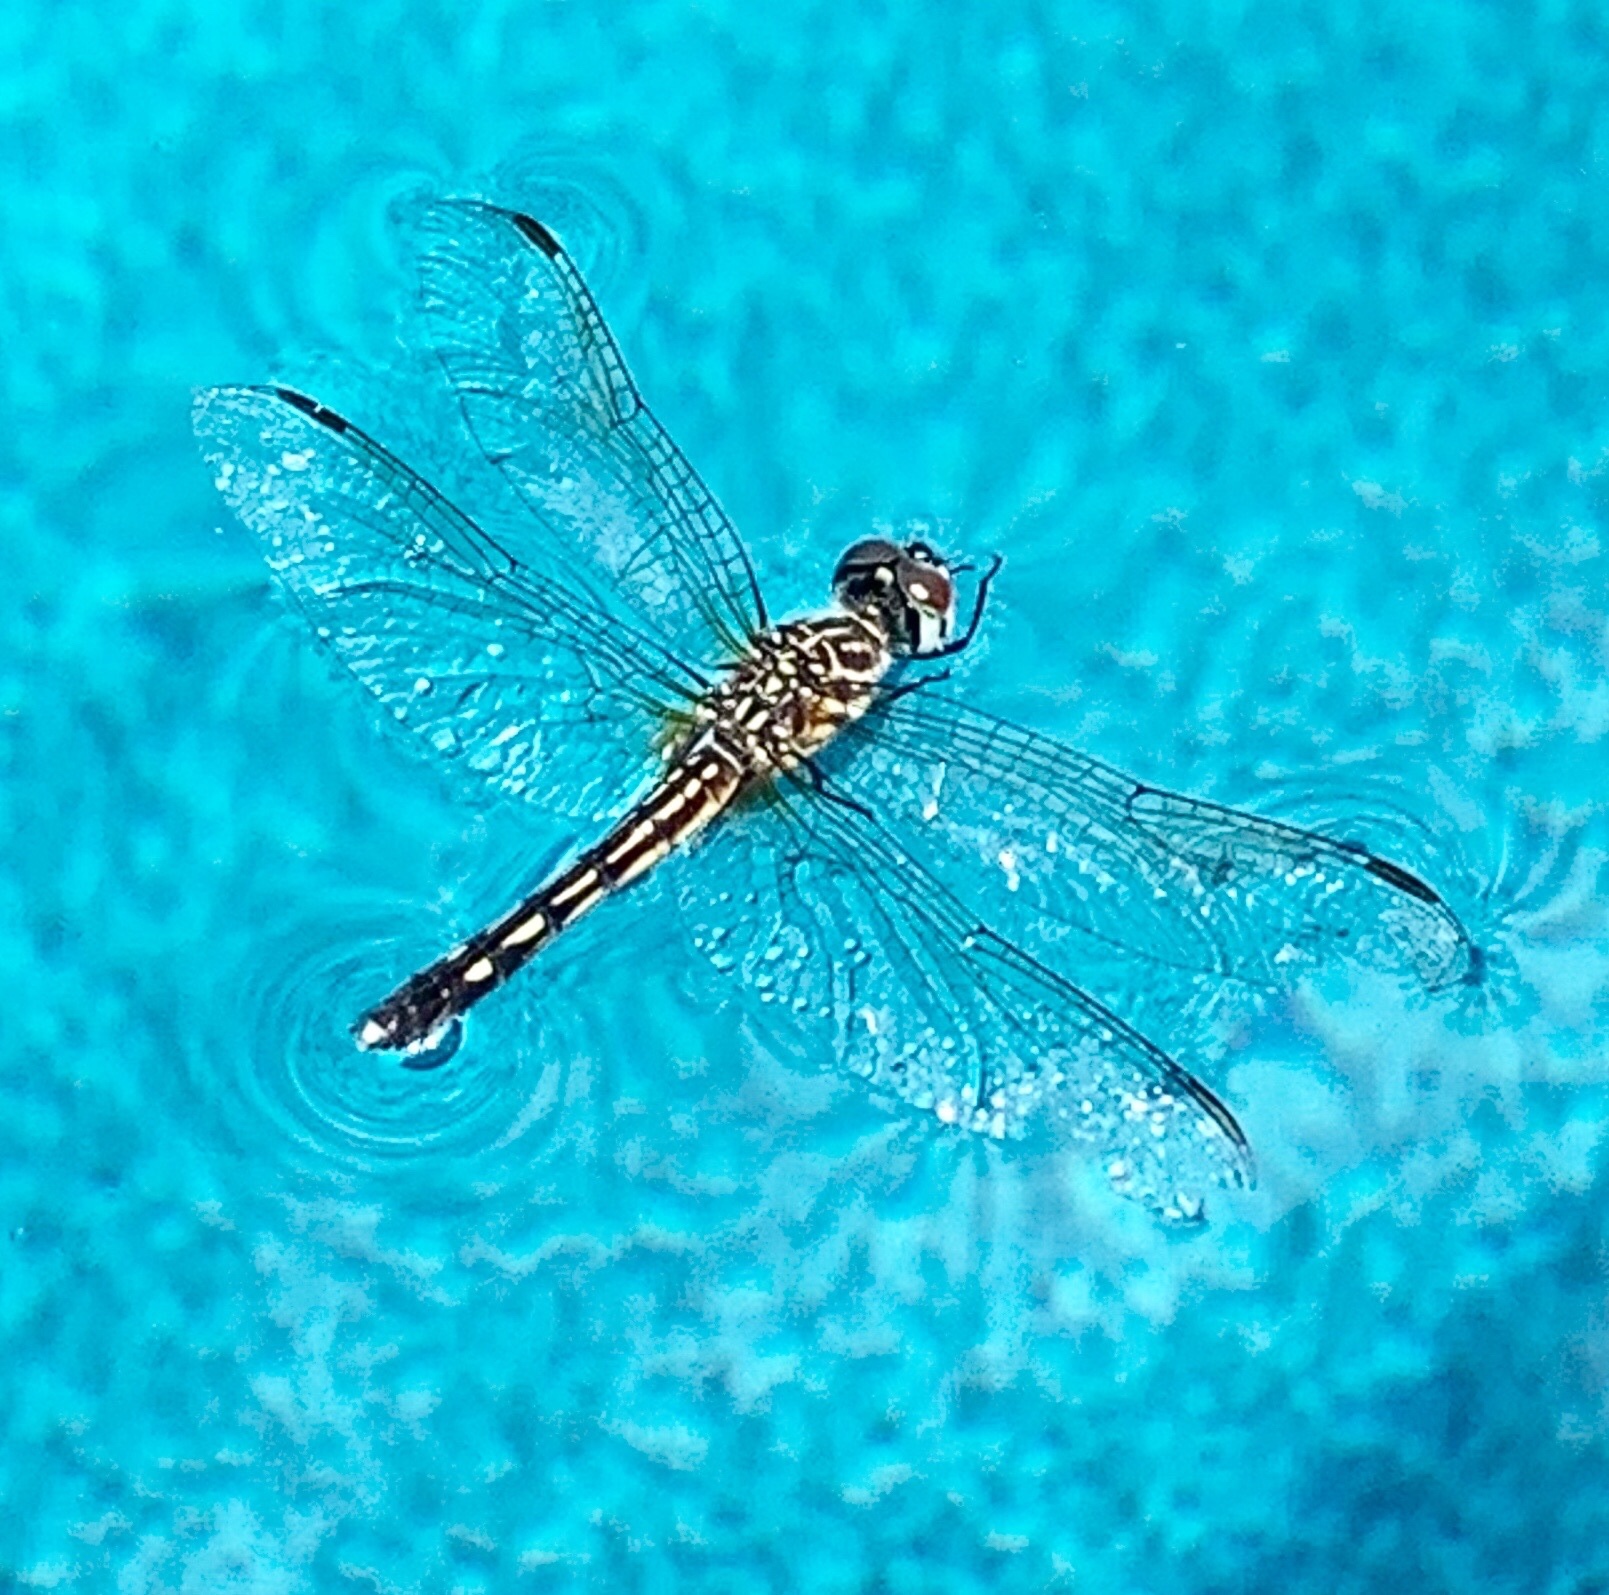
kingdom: Animalia
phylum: Arthropoda
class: Insecta
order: Odonata
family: Libellulidae
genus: Pachydiplax
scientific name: Pachydiplax longipennis
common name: Blue dasher
